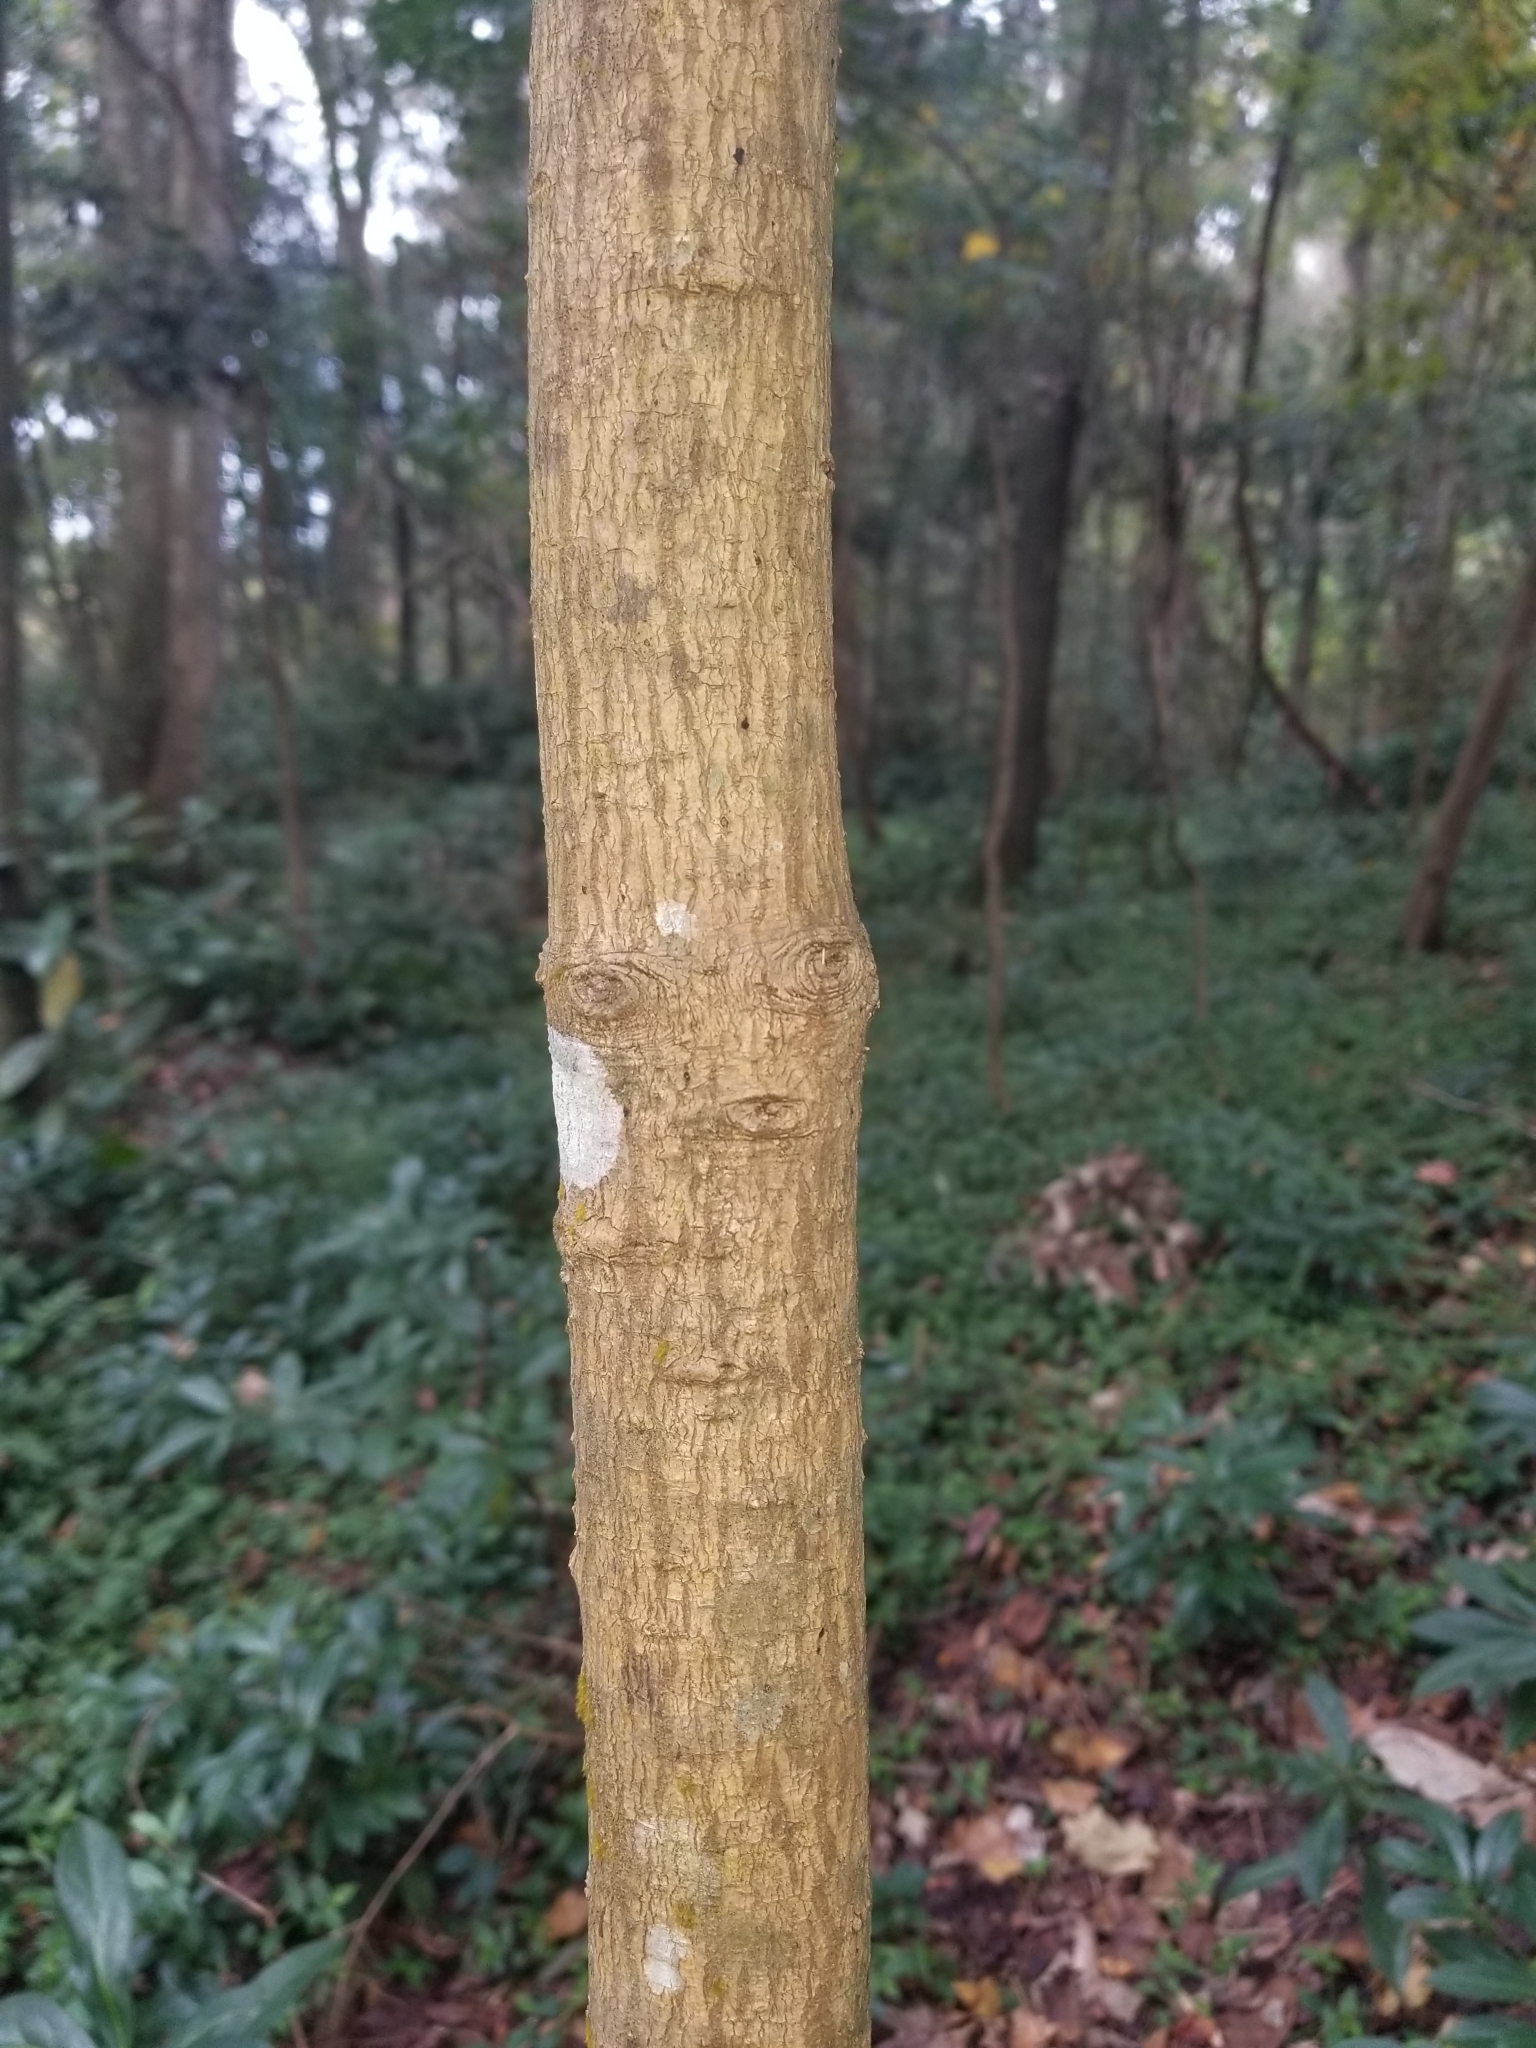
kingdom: Plantae
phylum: Tracheophyta
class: Magnoliopsida
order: Ericales
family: Symplocaceae
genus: Symplocos
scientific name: Symplocos tinctoria
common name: Horse-sugar
